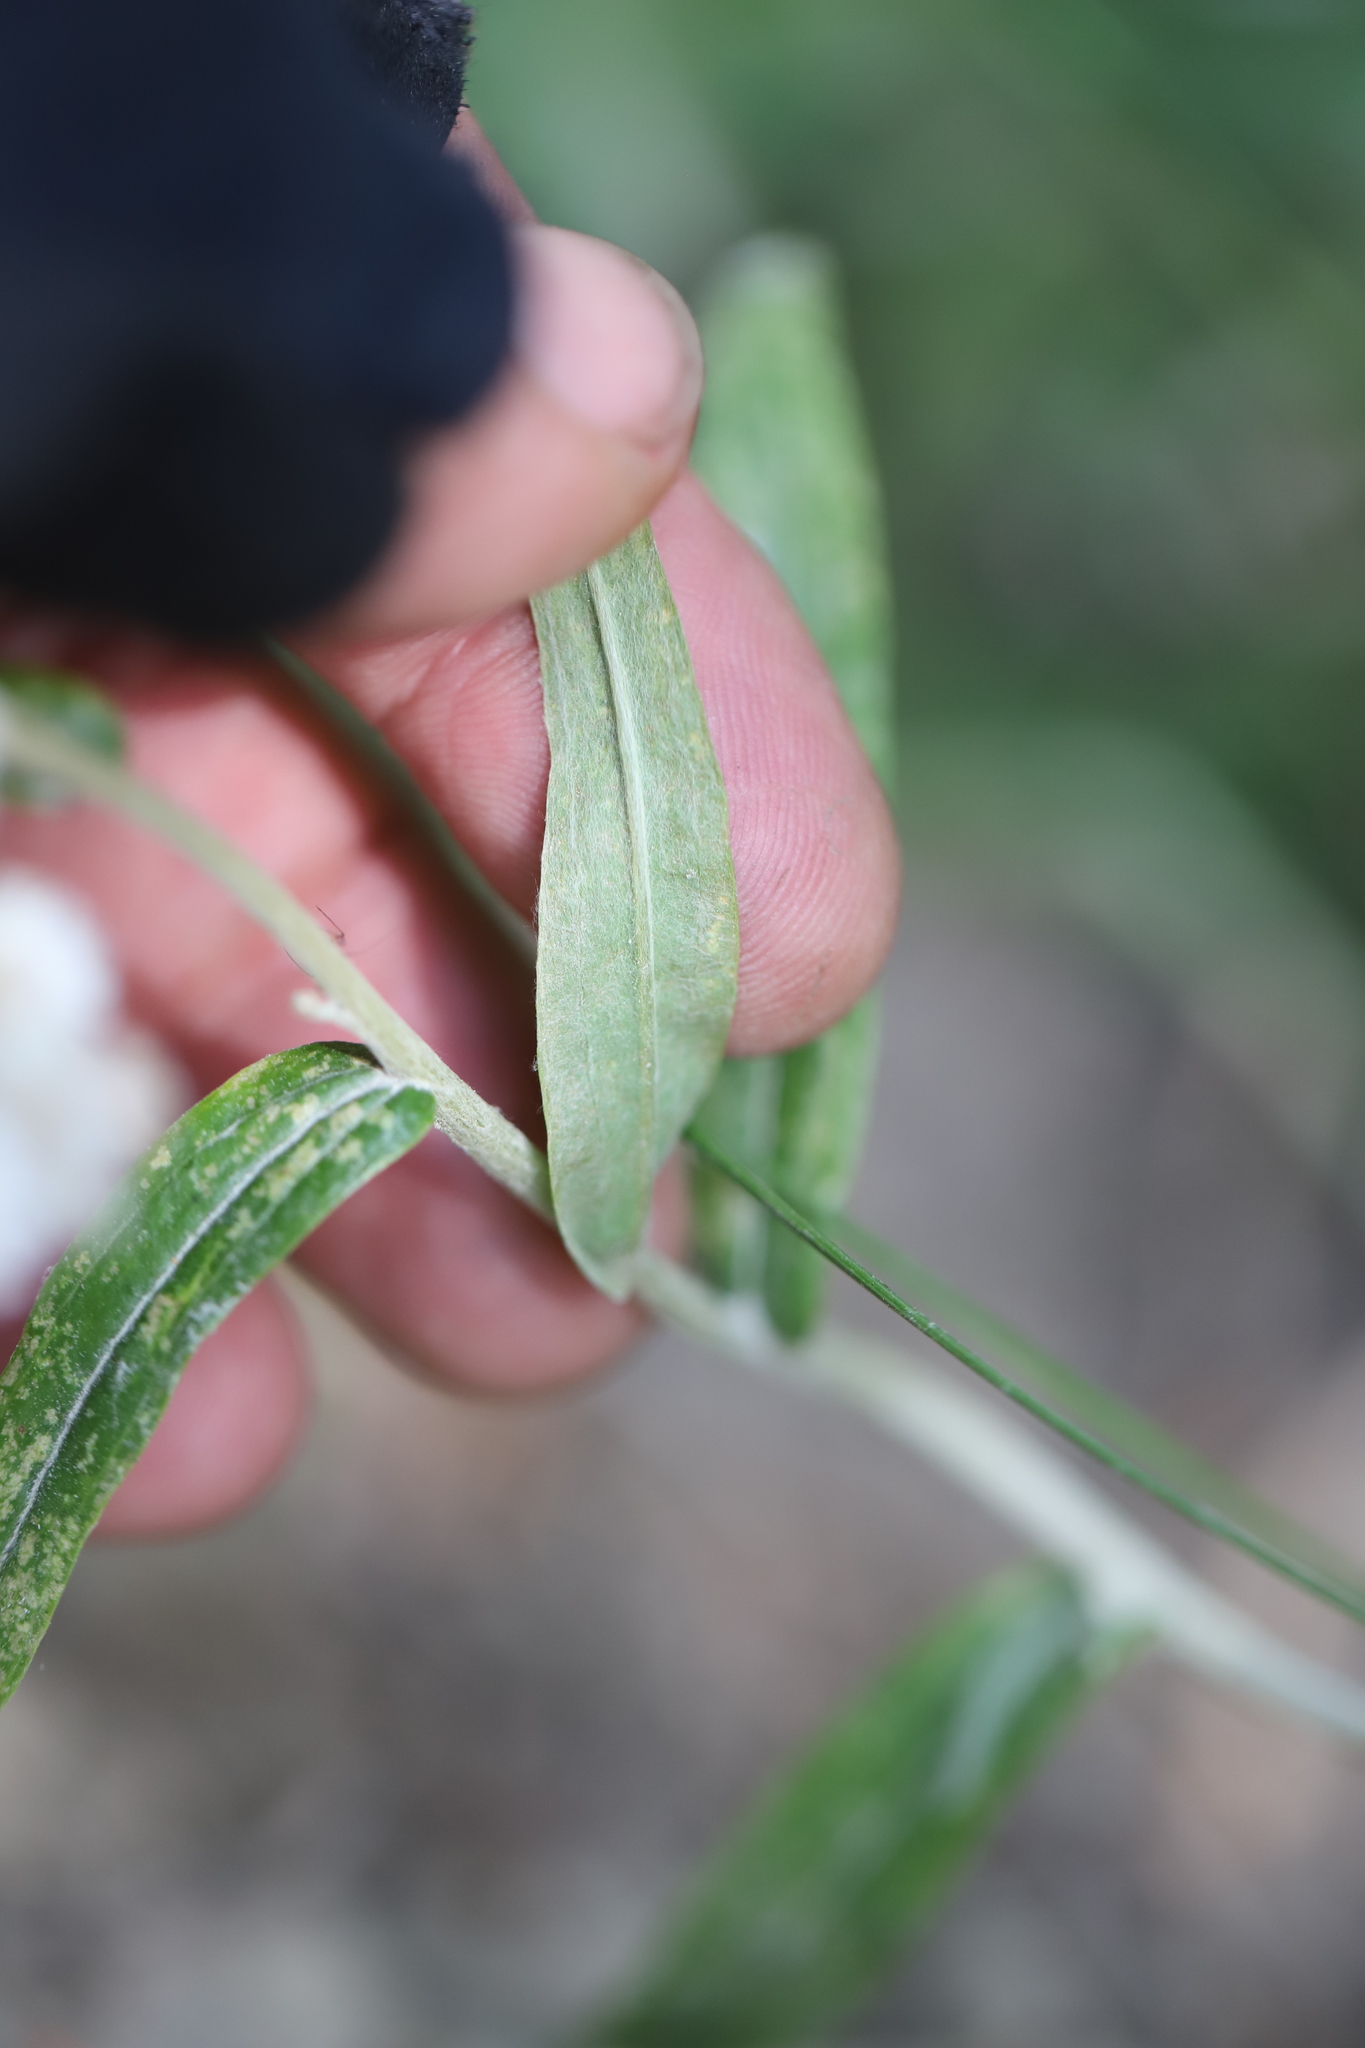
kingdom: Plantae
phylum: Tracheophyta
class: Magnoliopsida
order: Asterales
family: Asteraceae
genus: Anaphalis
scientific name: Anaphalis margaritacea
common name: Pearly everlasting
